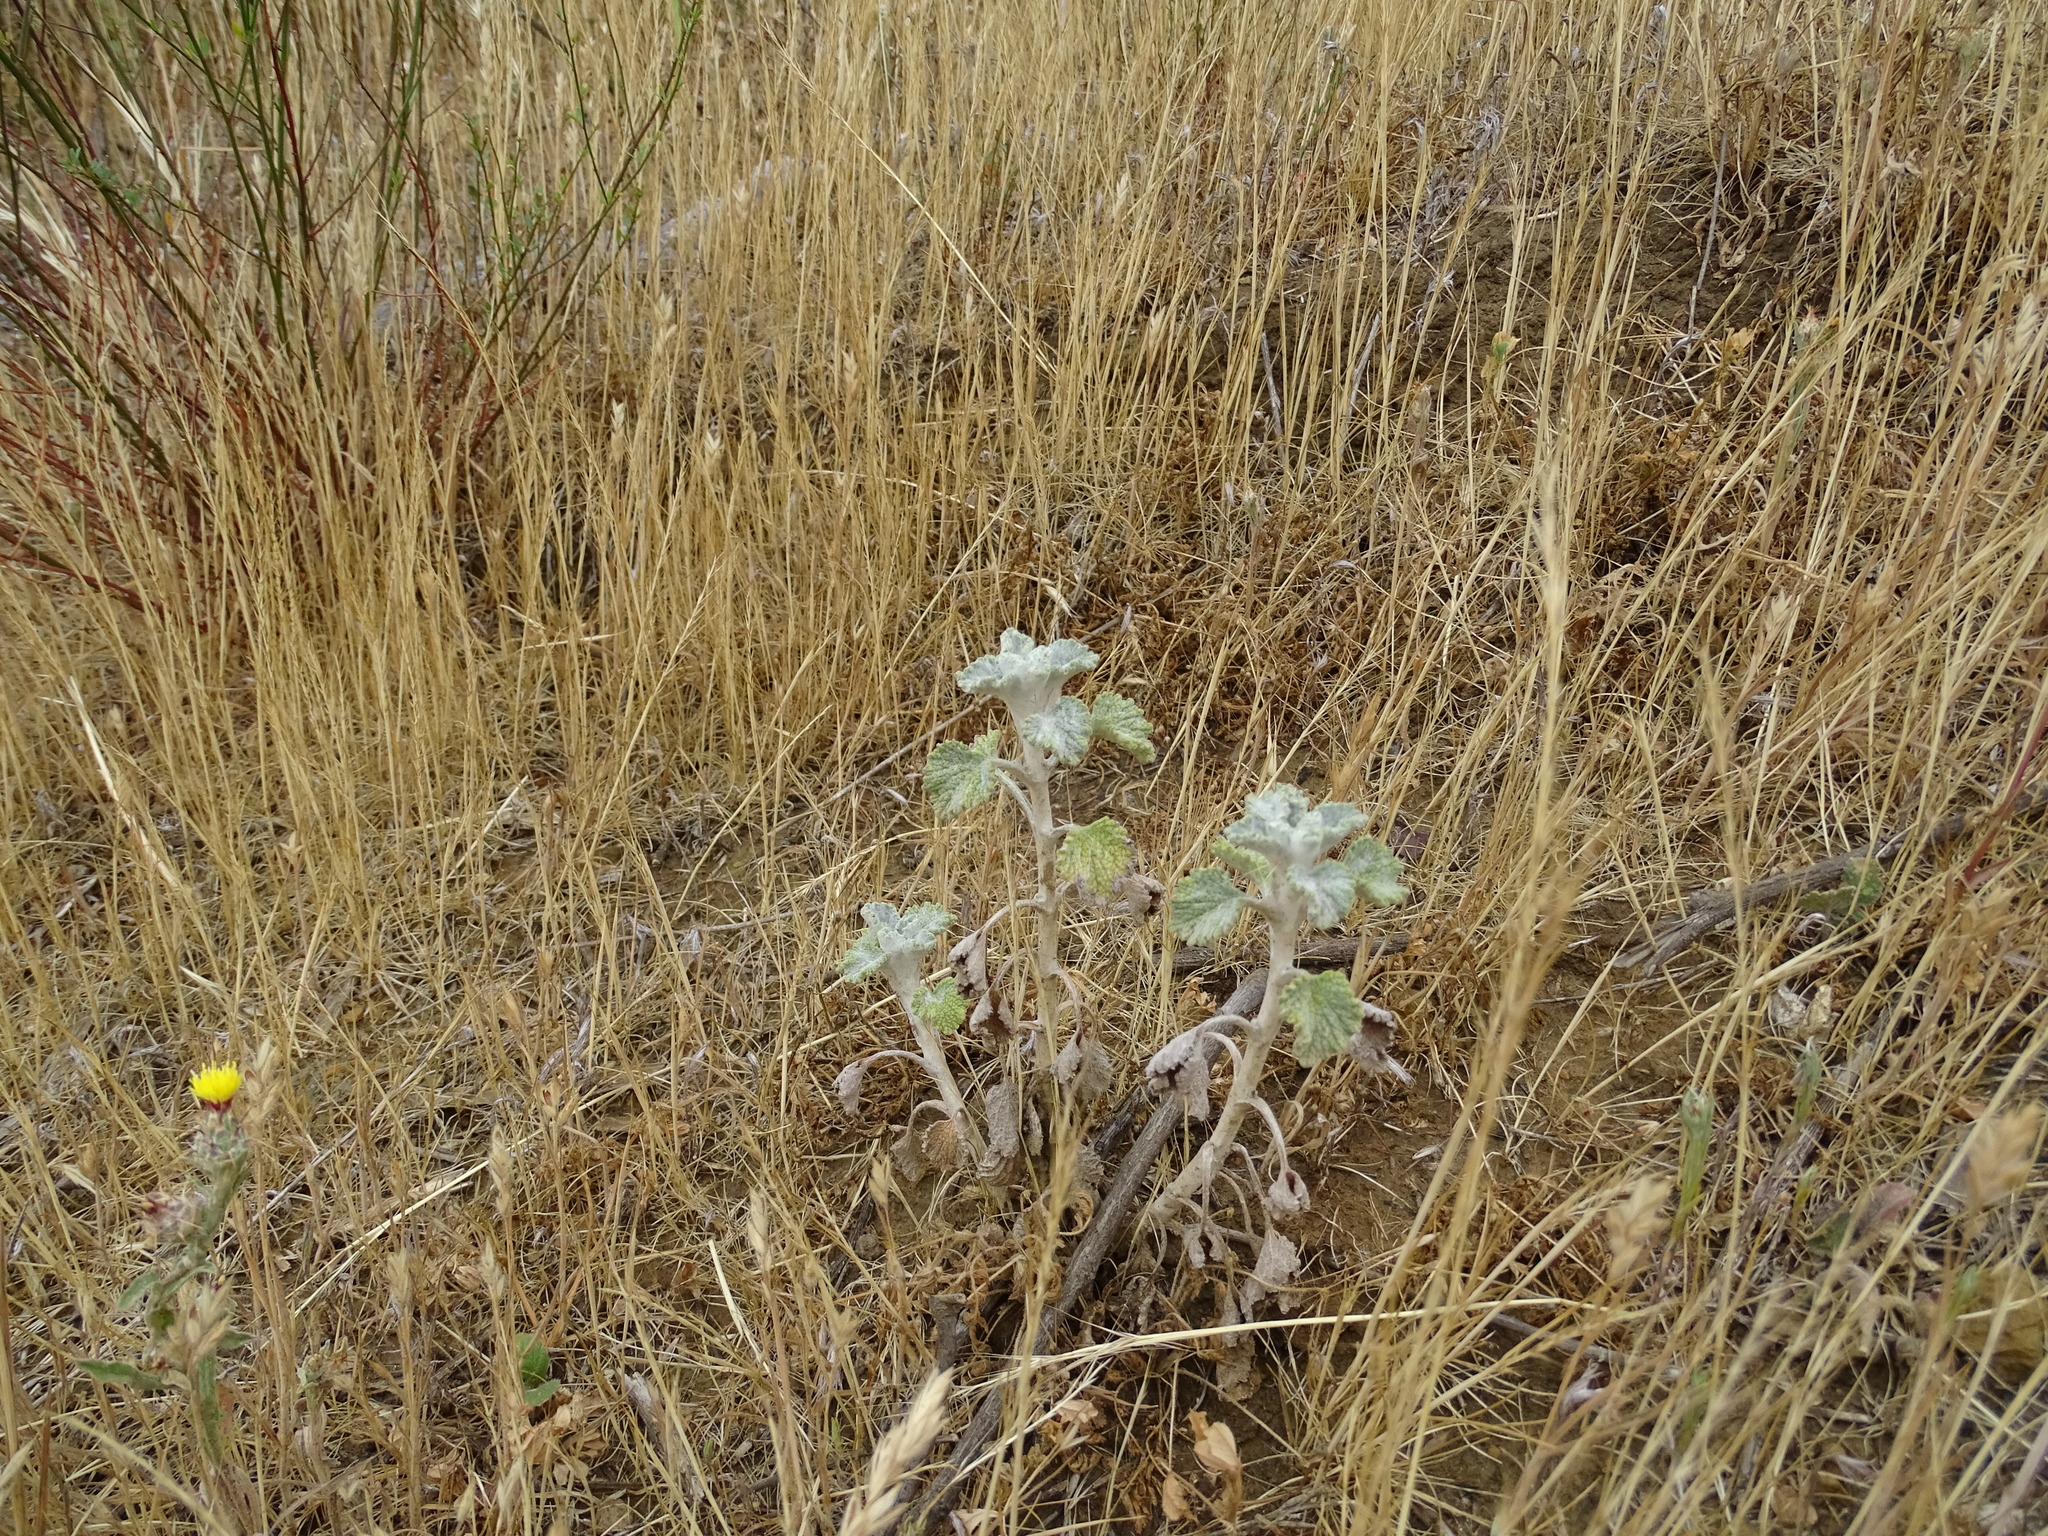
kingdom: Plantae
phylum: Tracheophyta
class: Magnoliopsida
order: Lamiales
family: Lamiaceae
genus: Marrubium
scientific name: Marrubium vulgare
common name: Horehound
